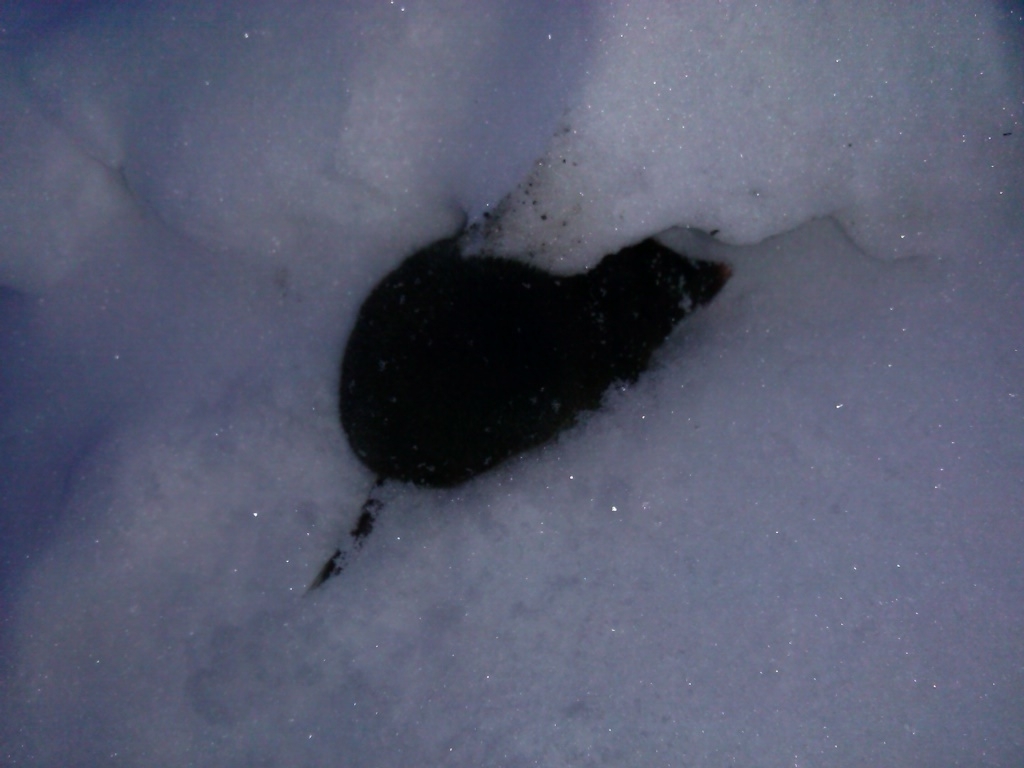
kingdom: Animalia
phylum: Chordata
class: Mammalia
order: Soricomorpha
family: Soricidae
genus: Blarina
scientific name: Blarina brevicauda
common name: Northern short-tailed shrew
